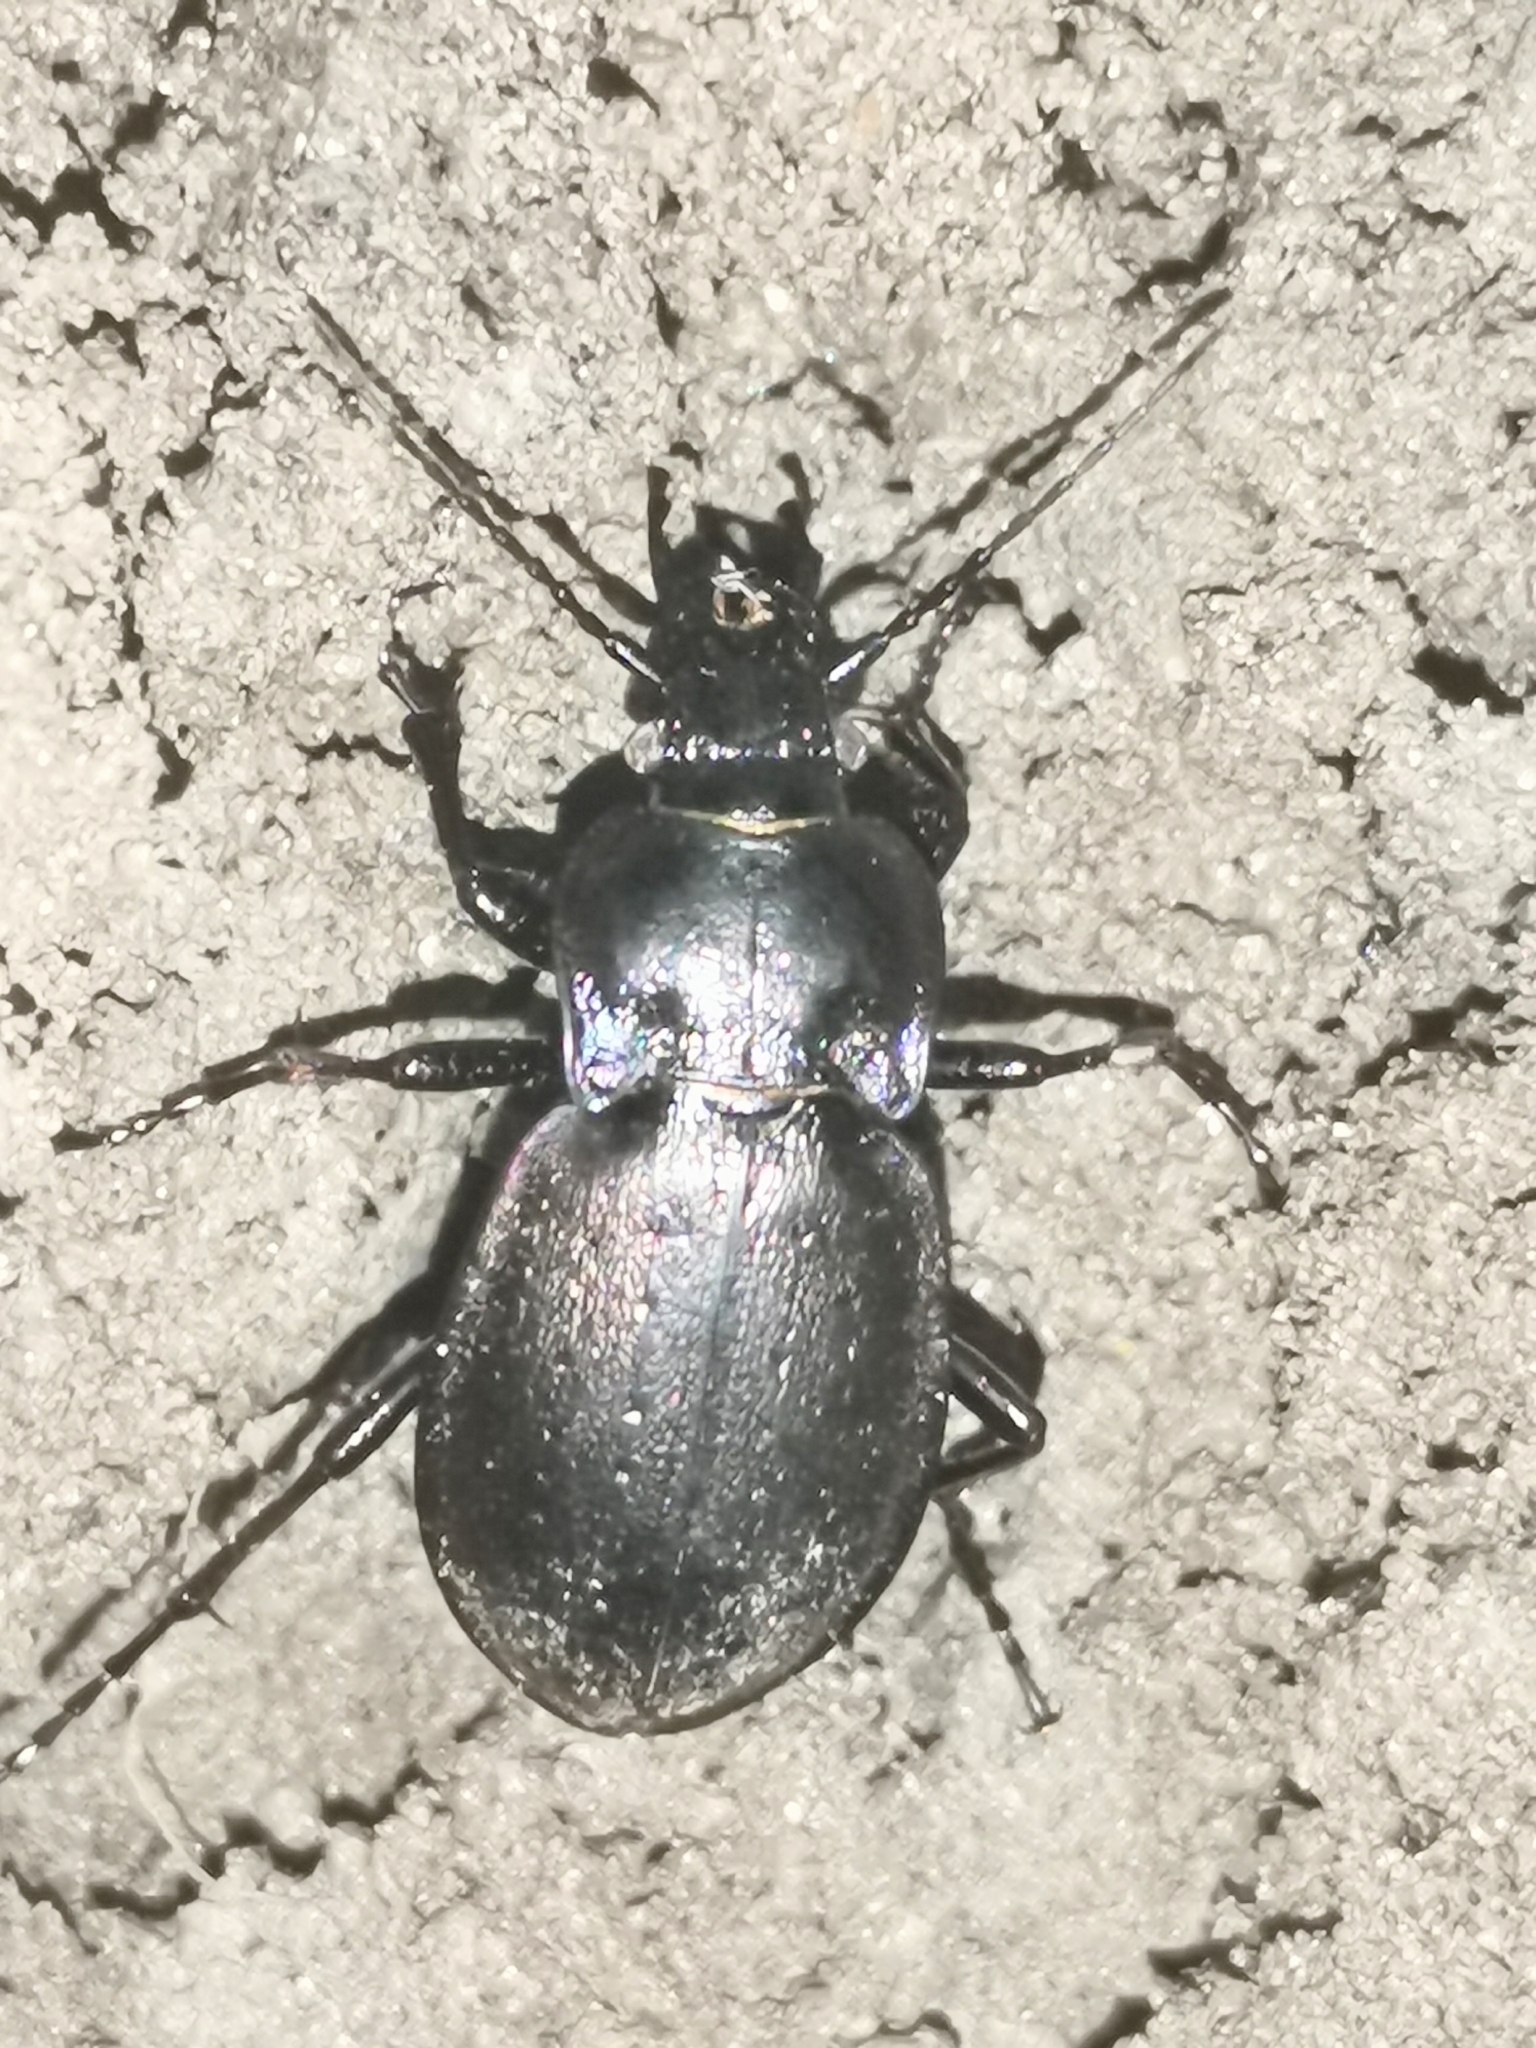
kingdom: Animalia
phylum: Arthropoda
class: Insecta
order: Coleoptera
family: Carabidae
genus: Carabus
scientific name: Carabus nemoralis
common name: European ground beetle
